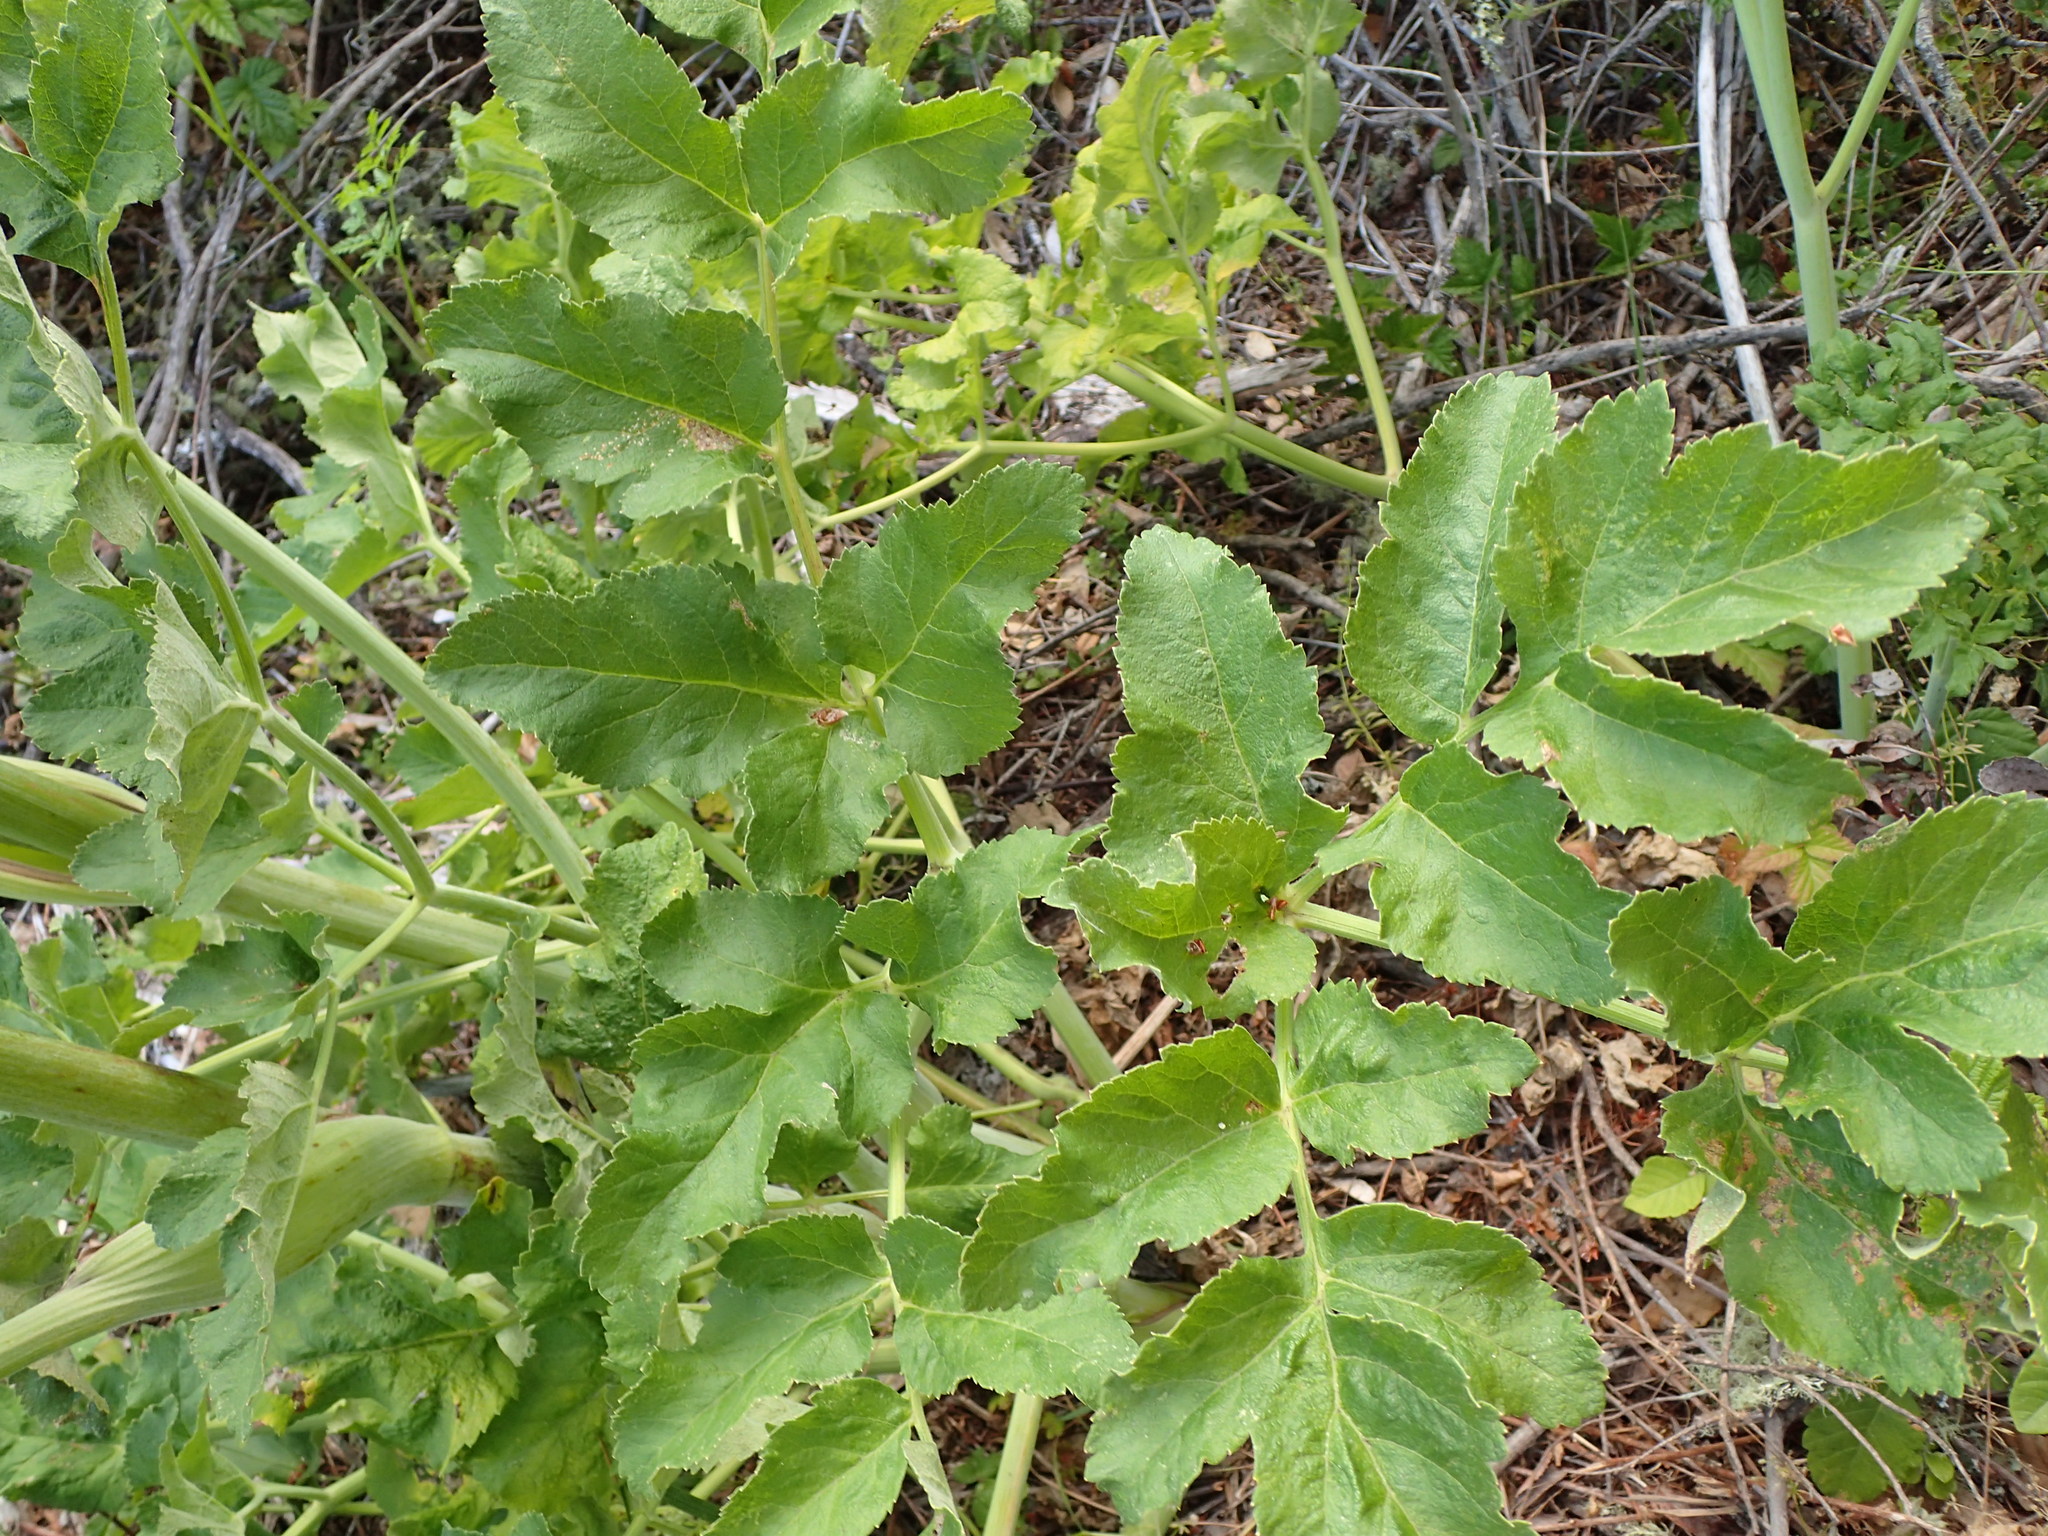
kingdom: Plantae
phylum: Tracheophyta
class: Magnoliopsida
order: Apiales
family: Apiaceae
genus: Angelica
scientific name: Angelica hendersonii
